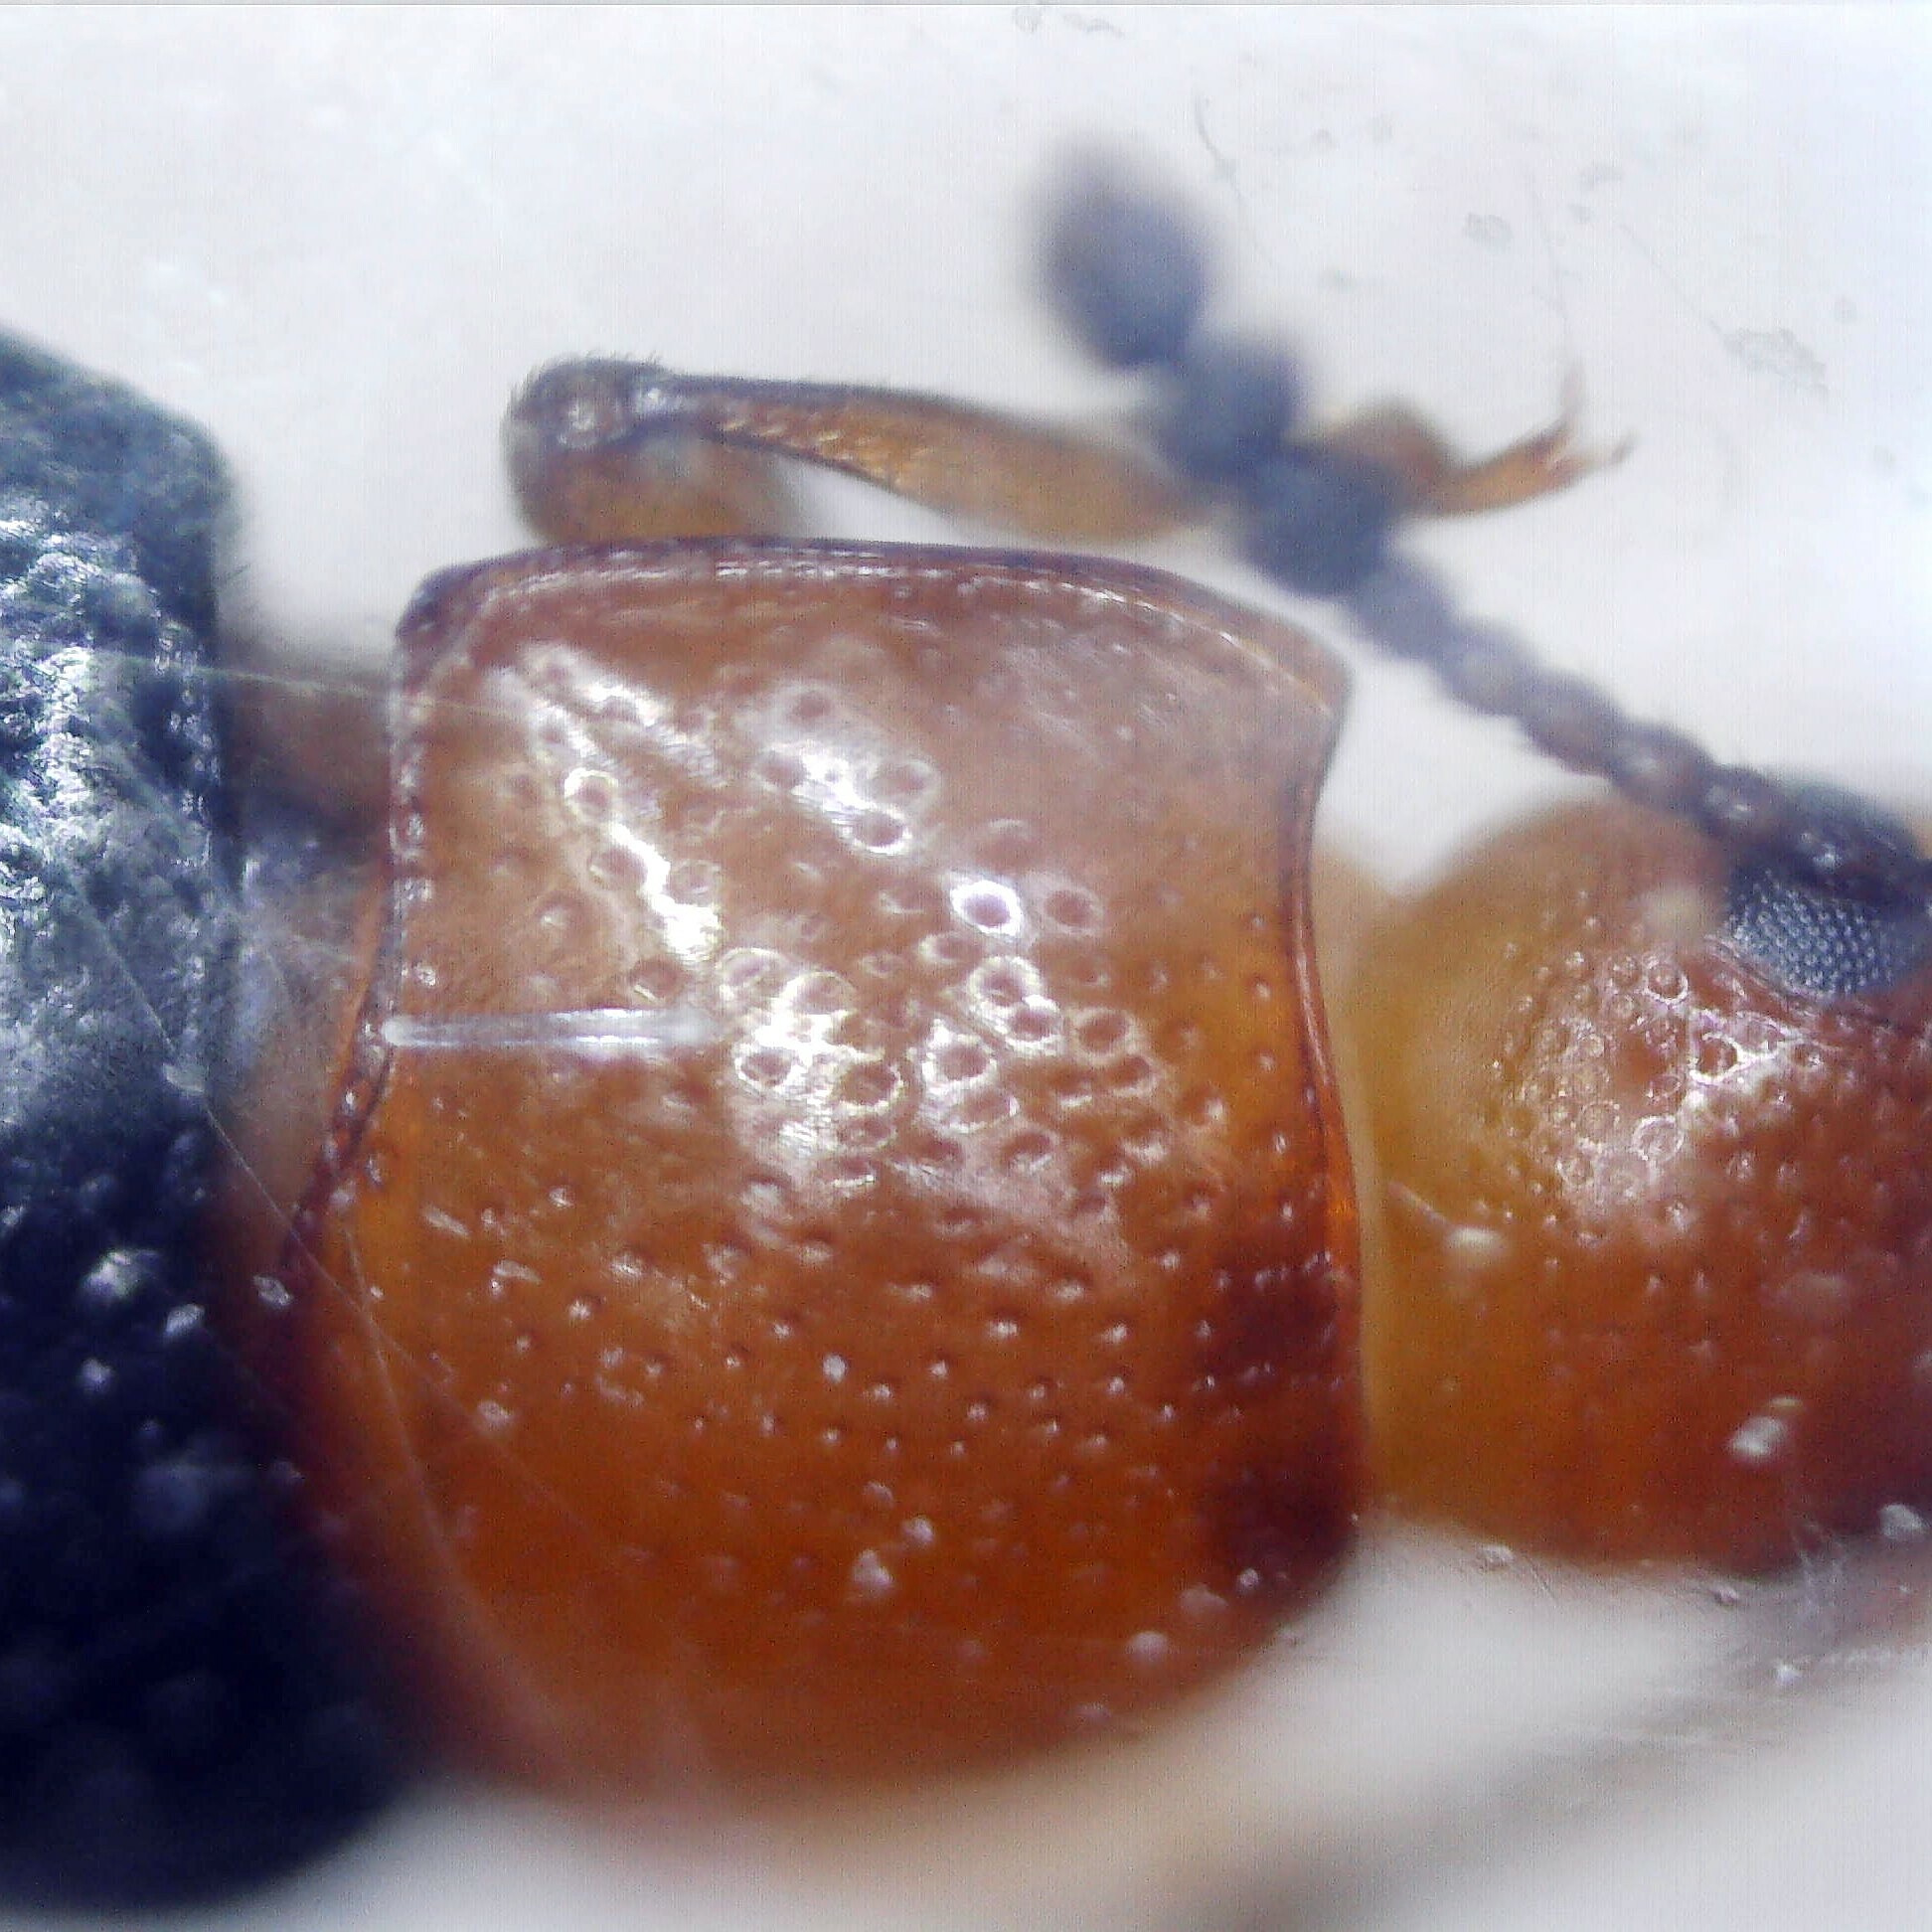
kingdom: Animalia
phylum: Arthropoda
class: Insecta
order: Coleoptera
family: Erotylidae
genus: Triplax
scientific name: Triplax lacordairii
